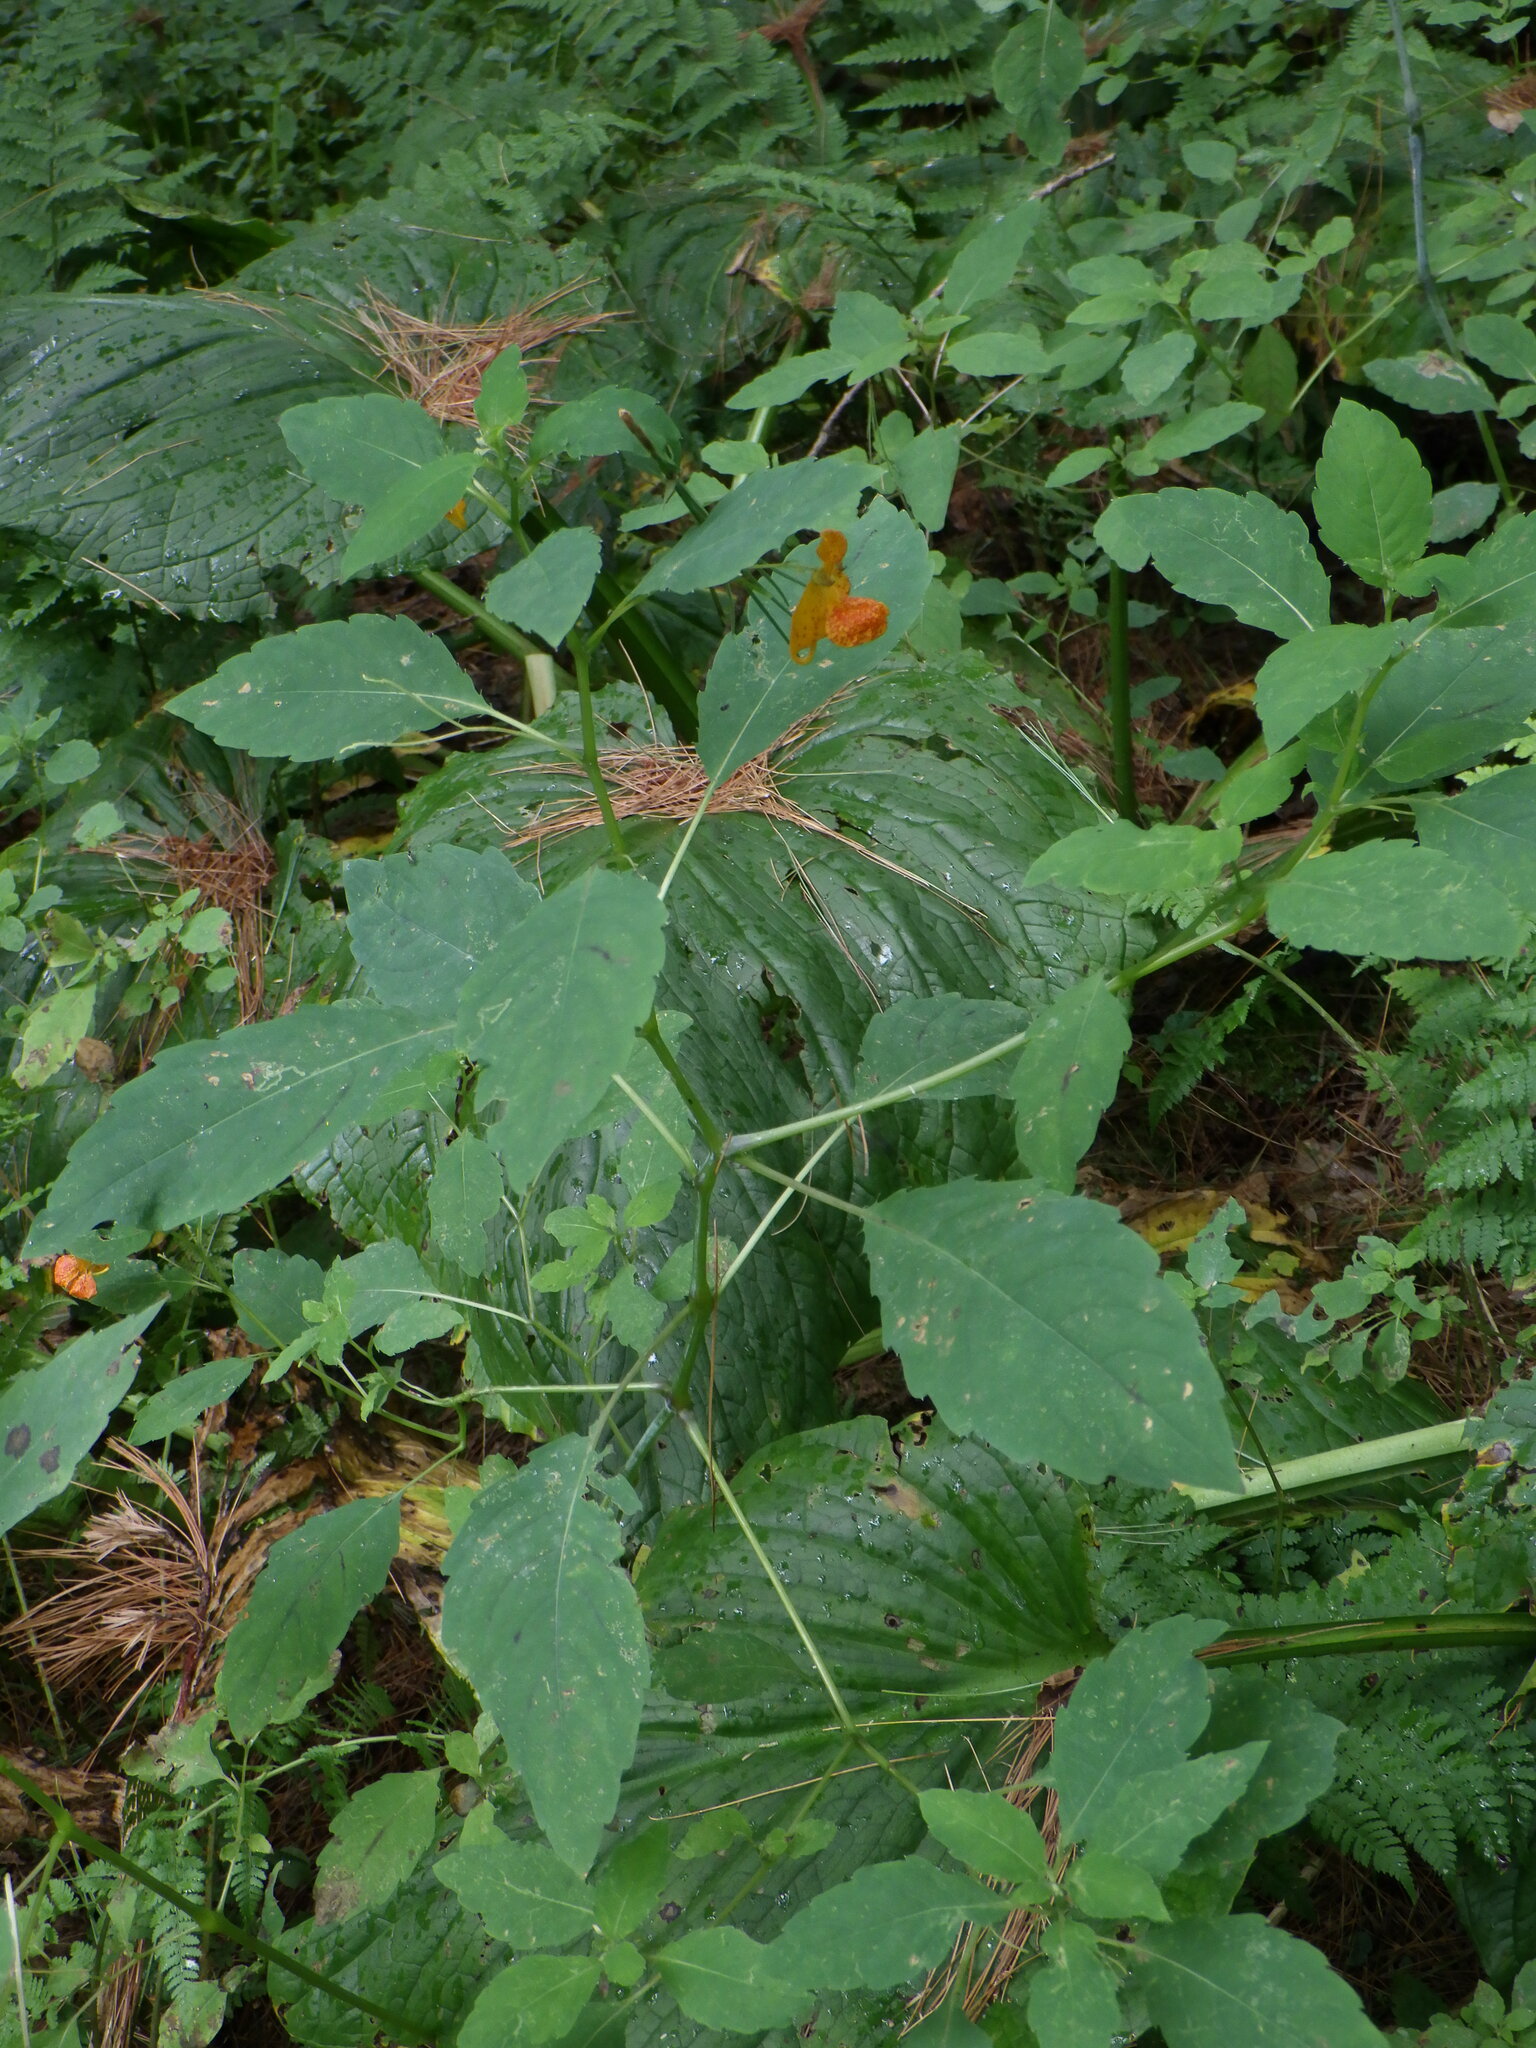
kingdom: Plantae
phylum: Tracheophyta
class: Magnoliopsida
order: Ericales
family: Balsaminaceae
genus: Impatiens
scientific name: Impatiens capensis
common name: Orange balsam
